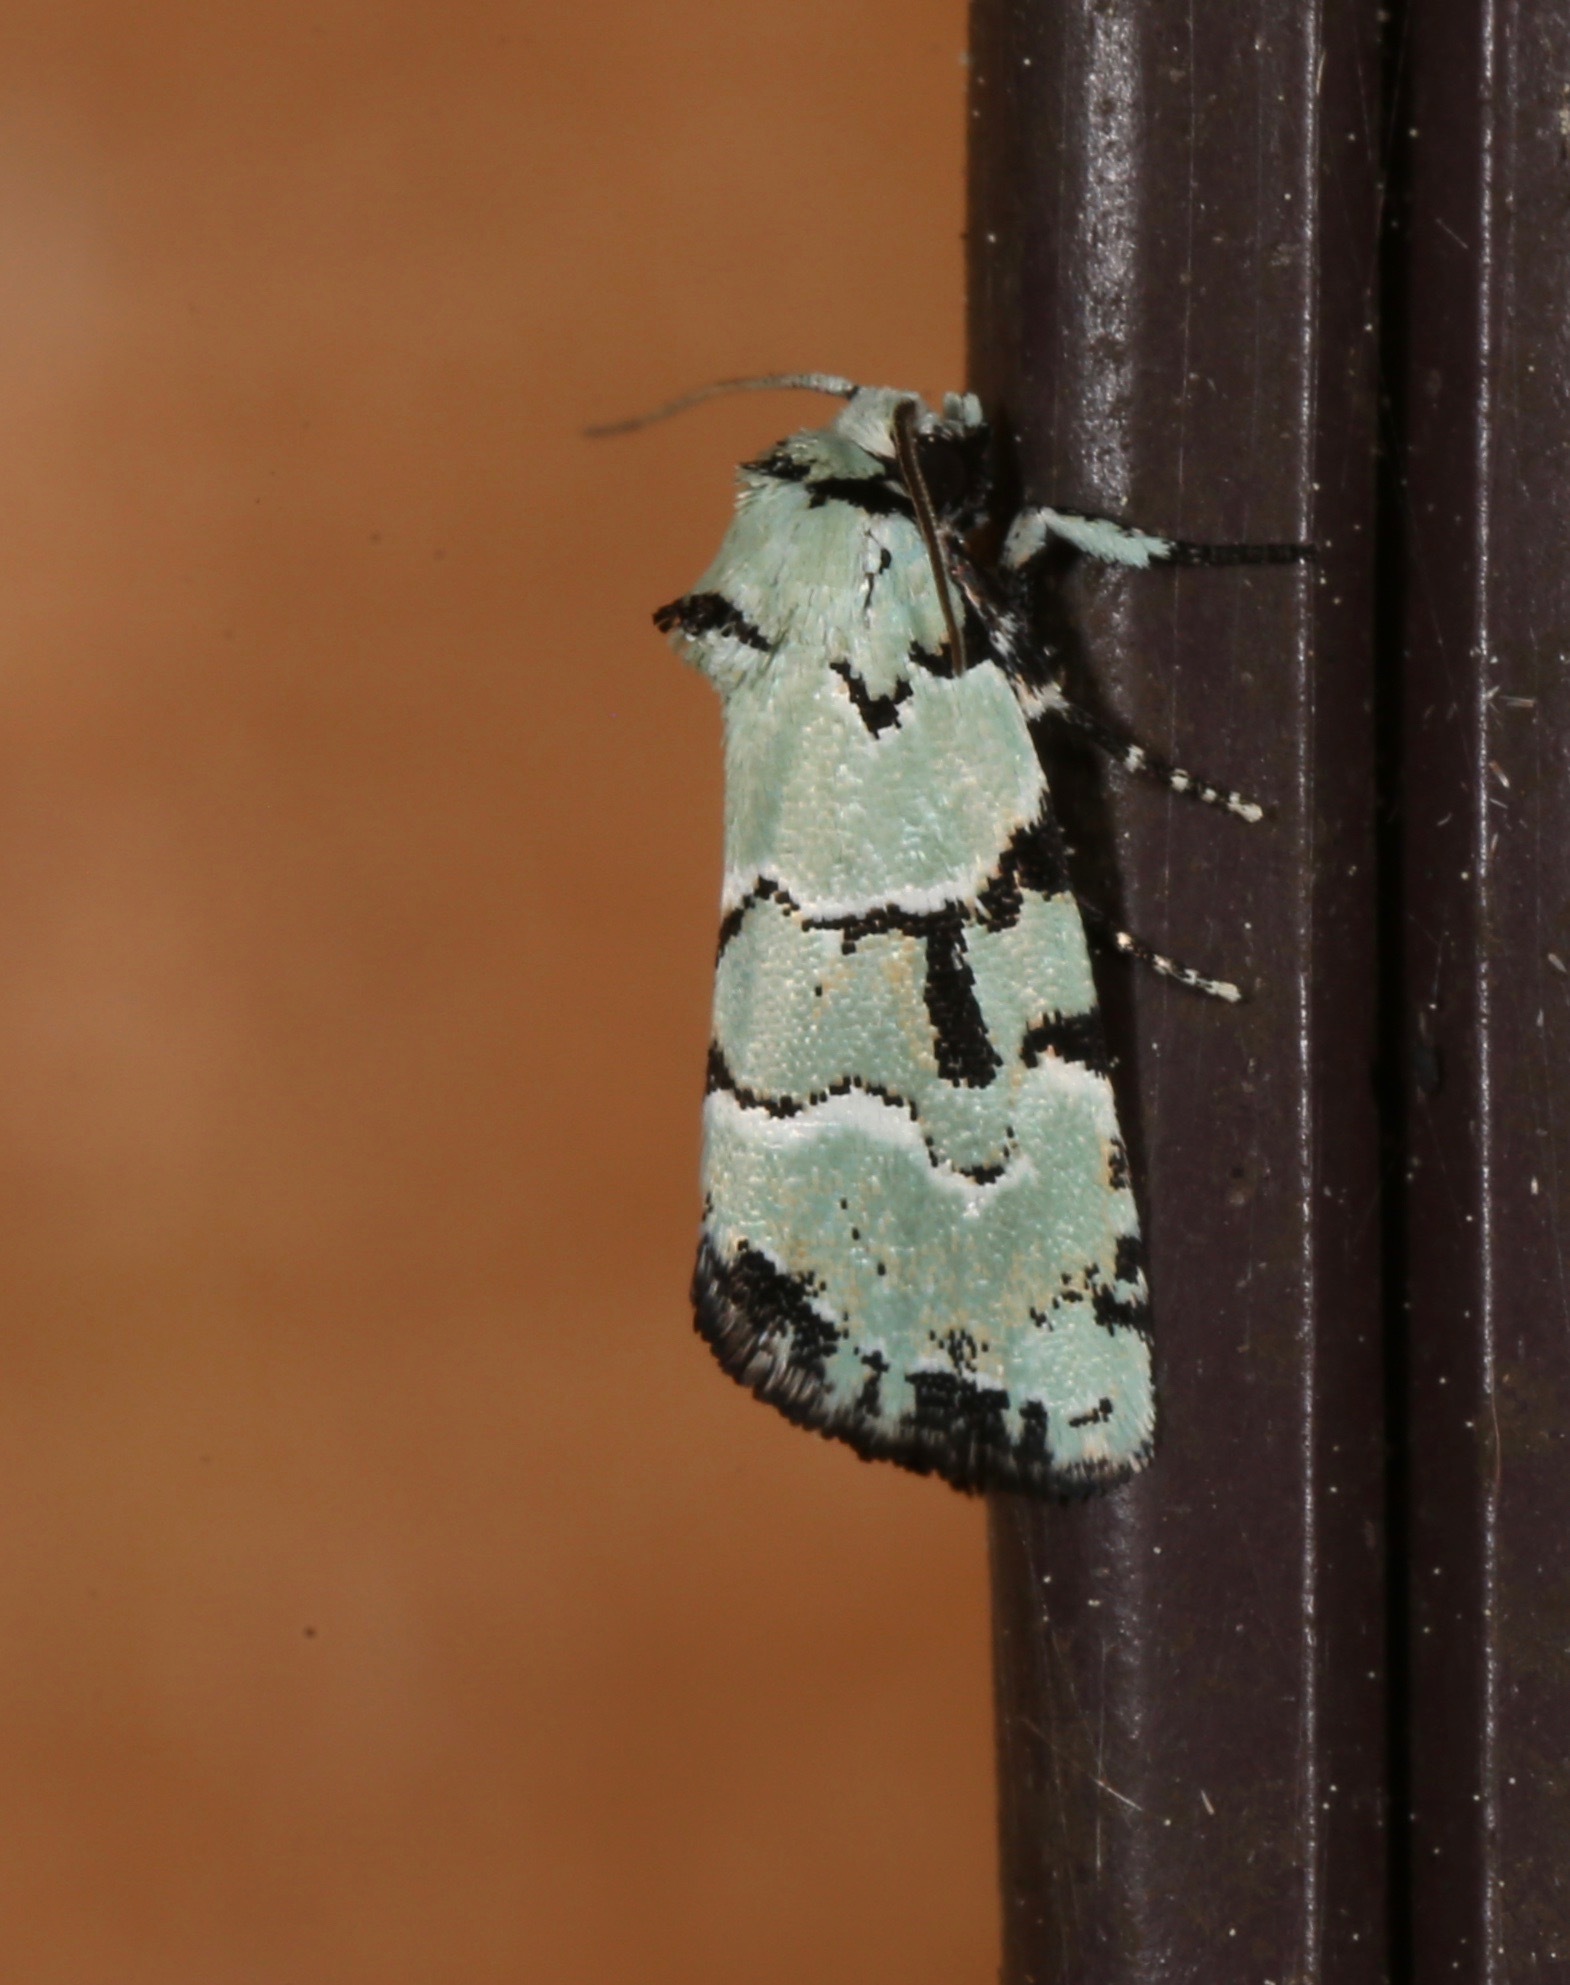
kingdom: Animalia
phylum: Arthropoda
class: Insecta
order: Lepidoptera
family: Noctuidae
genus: Elaphria
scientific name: Elaphria cyanympha
